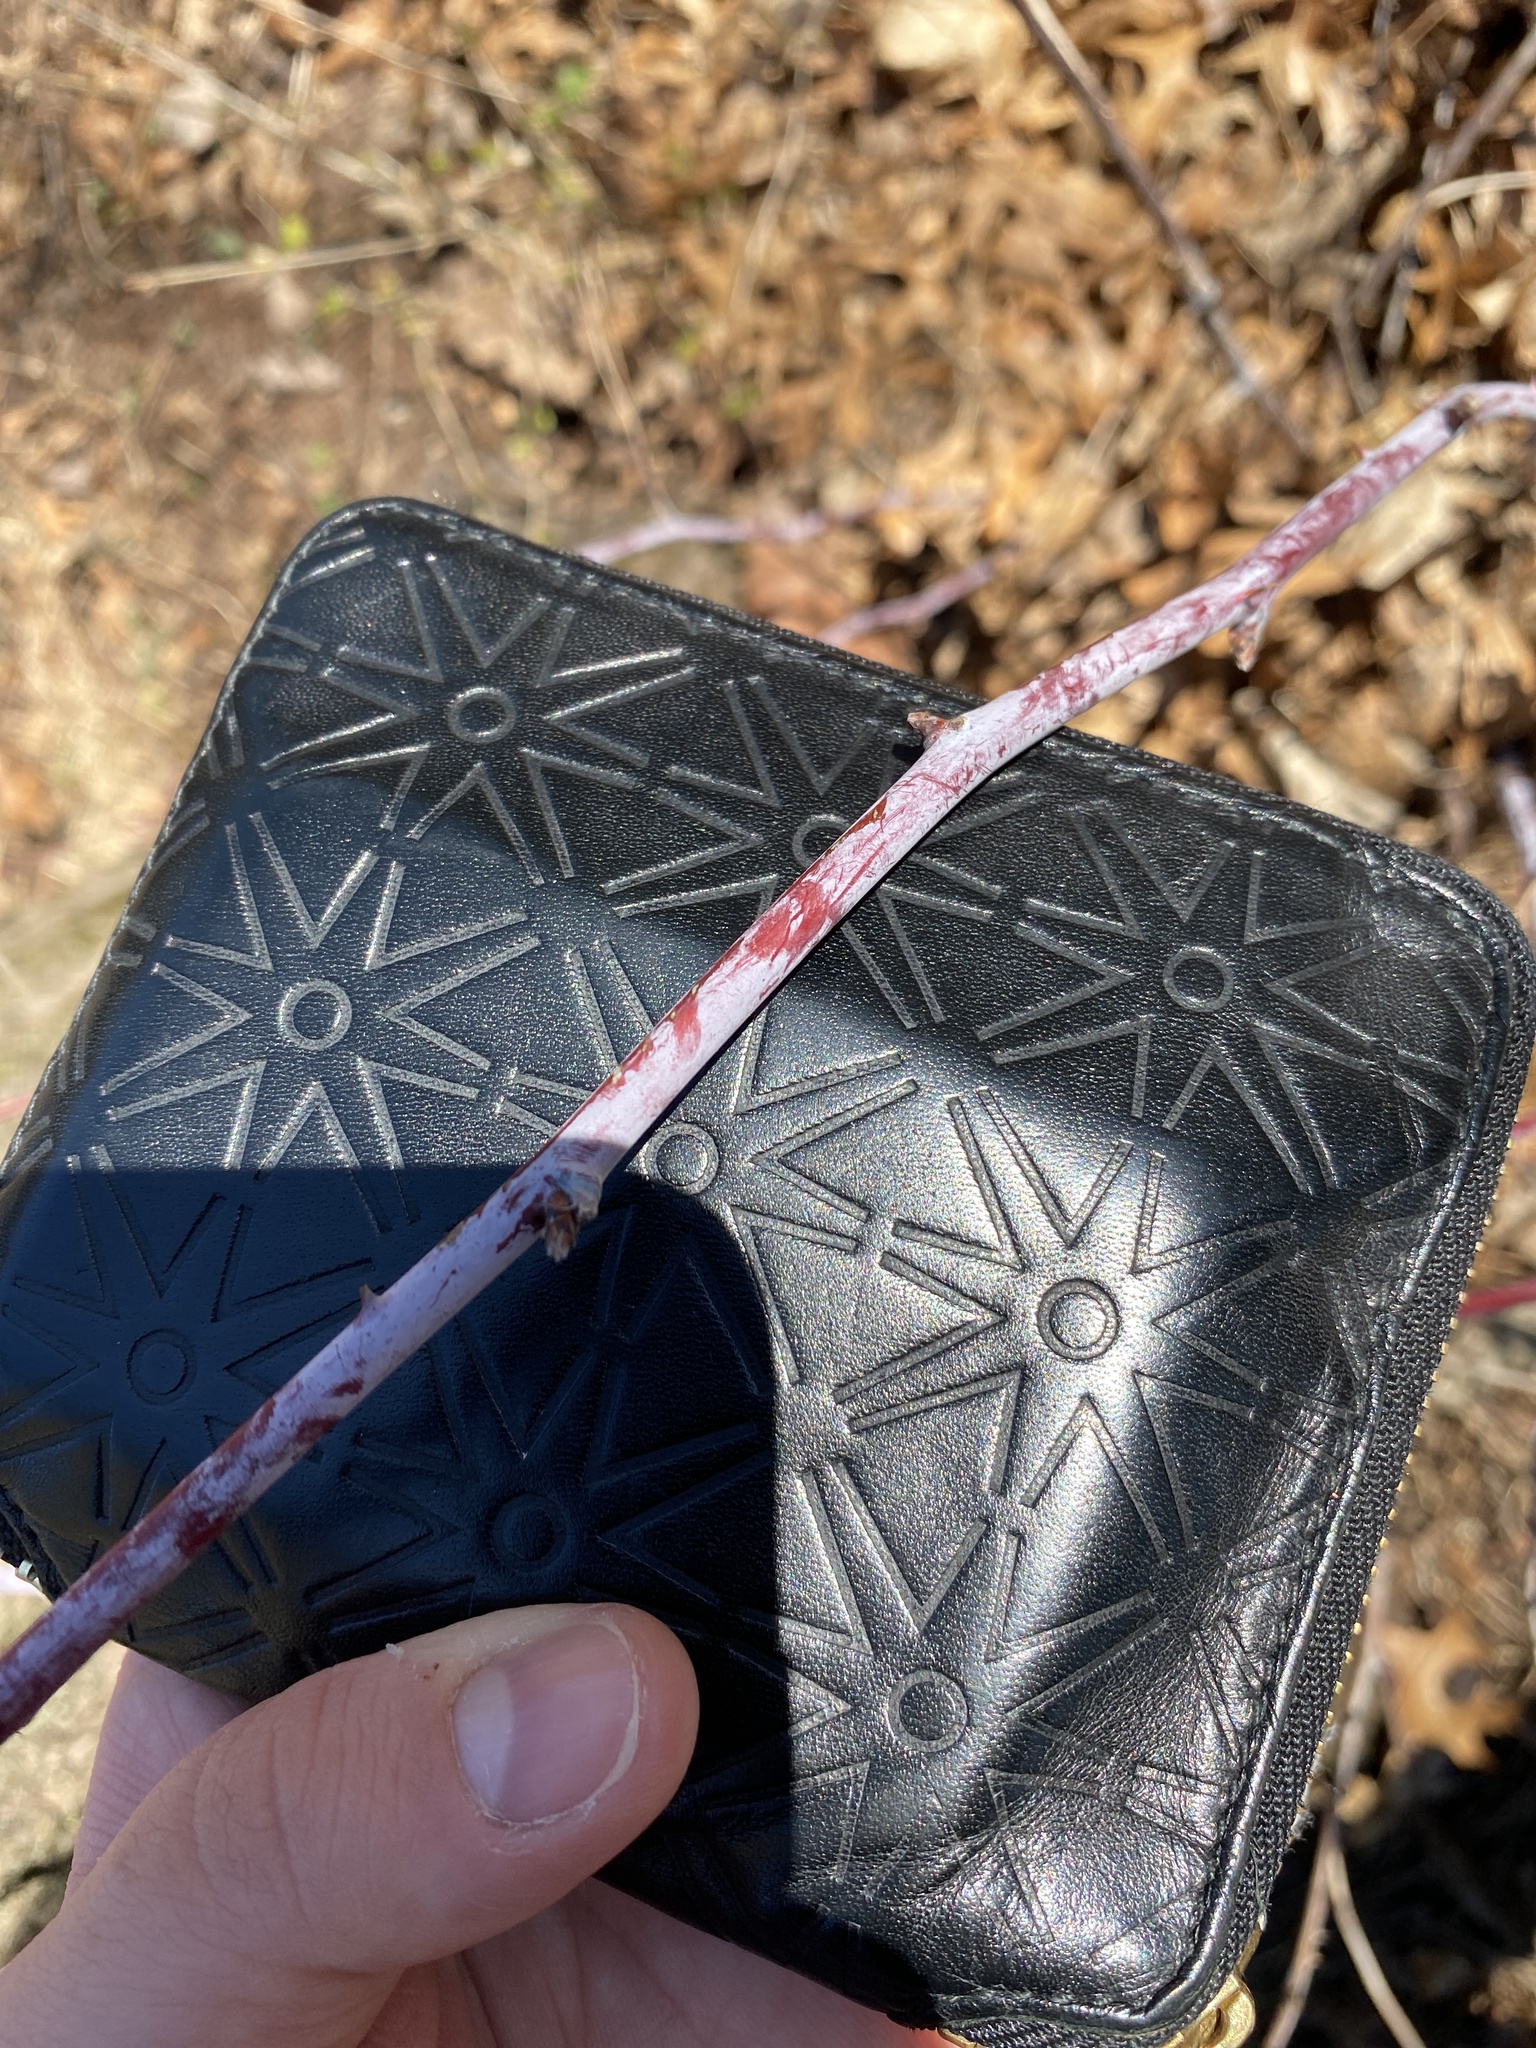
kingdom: Plantae
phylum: Tracheophyta
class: Magnoliopsida
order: Rosales
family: Rosaceae
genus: Rubus
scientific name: Rubus occidentalis
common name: Black raspberry
